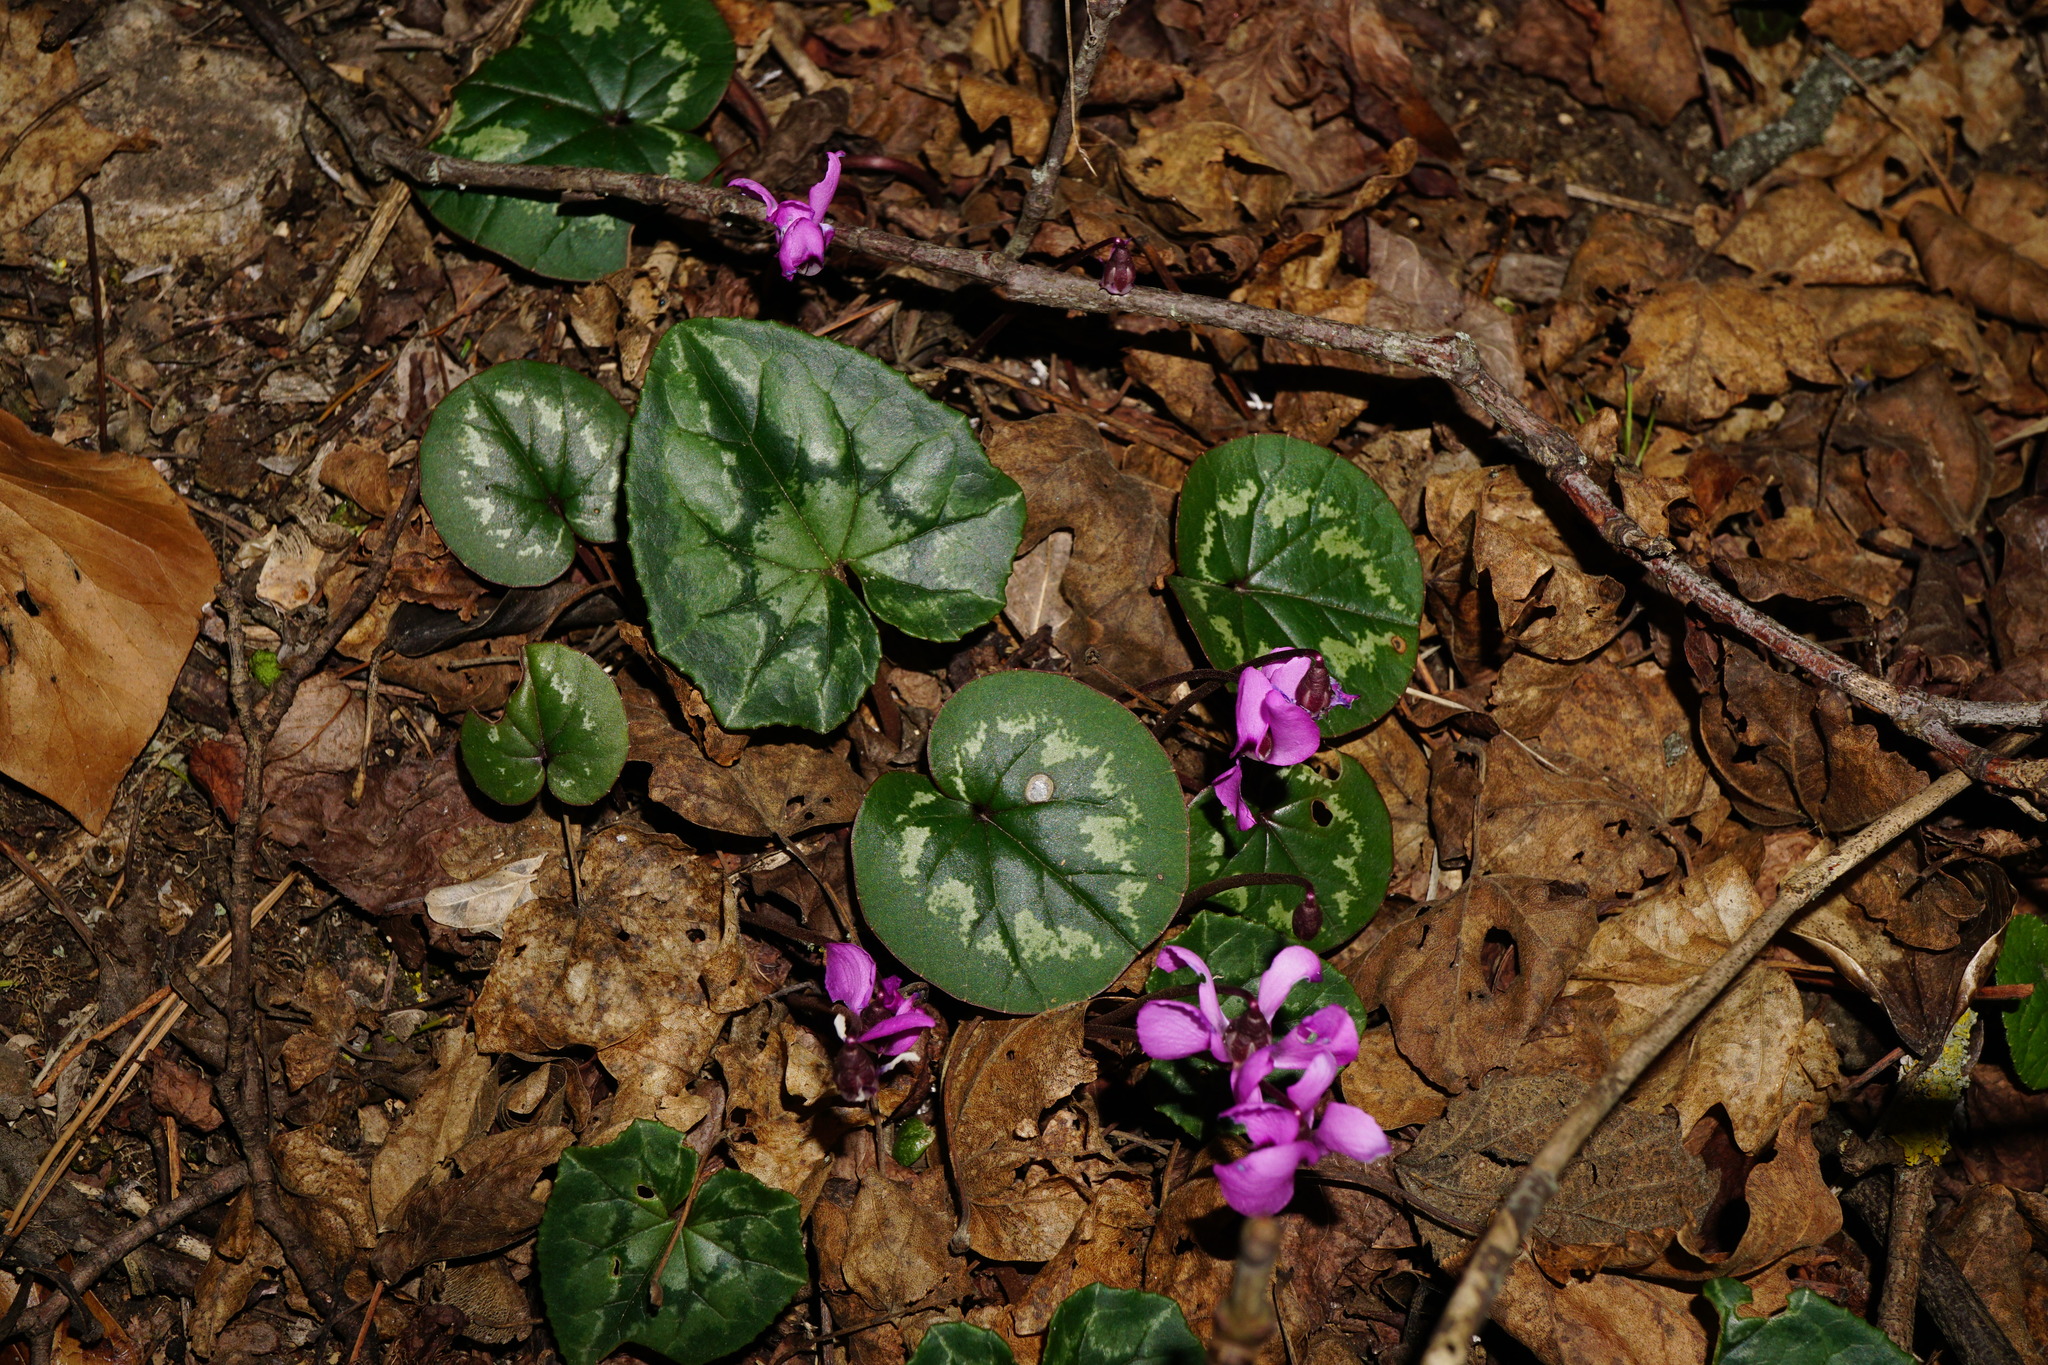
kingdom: Plantae
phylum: Tracheophyta
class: Magnoliopsida
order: Ericales
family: Primulaceae
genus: Cyclamen
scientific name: Cyclamen hederifolium
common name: Sowbread
